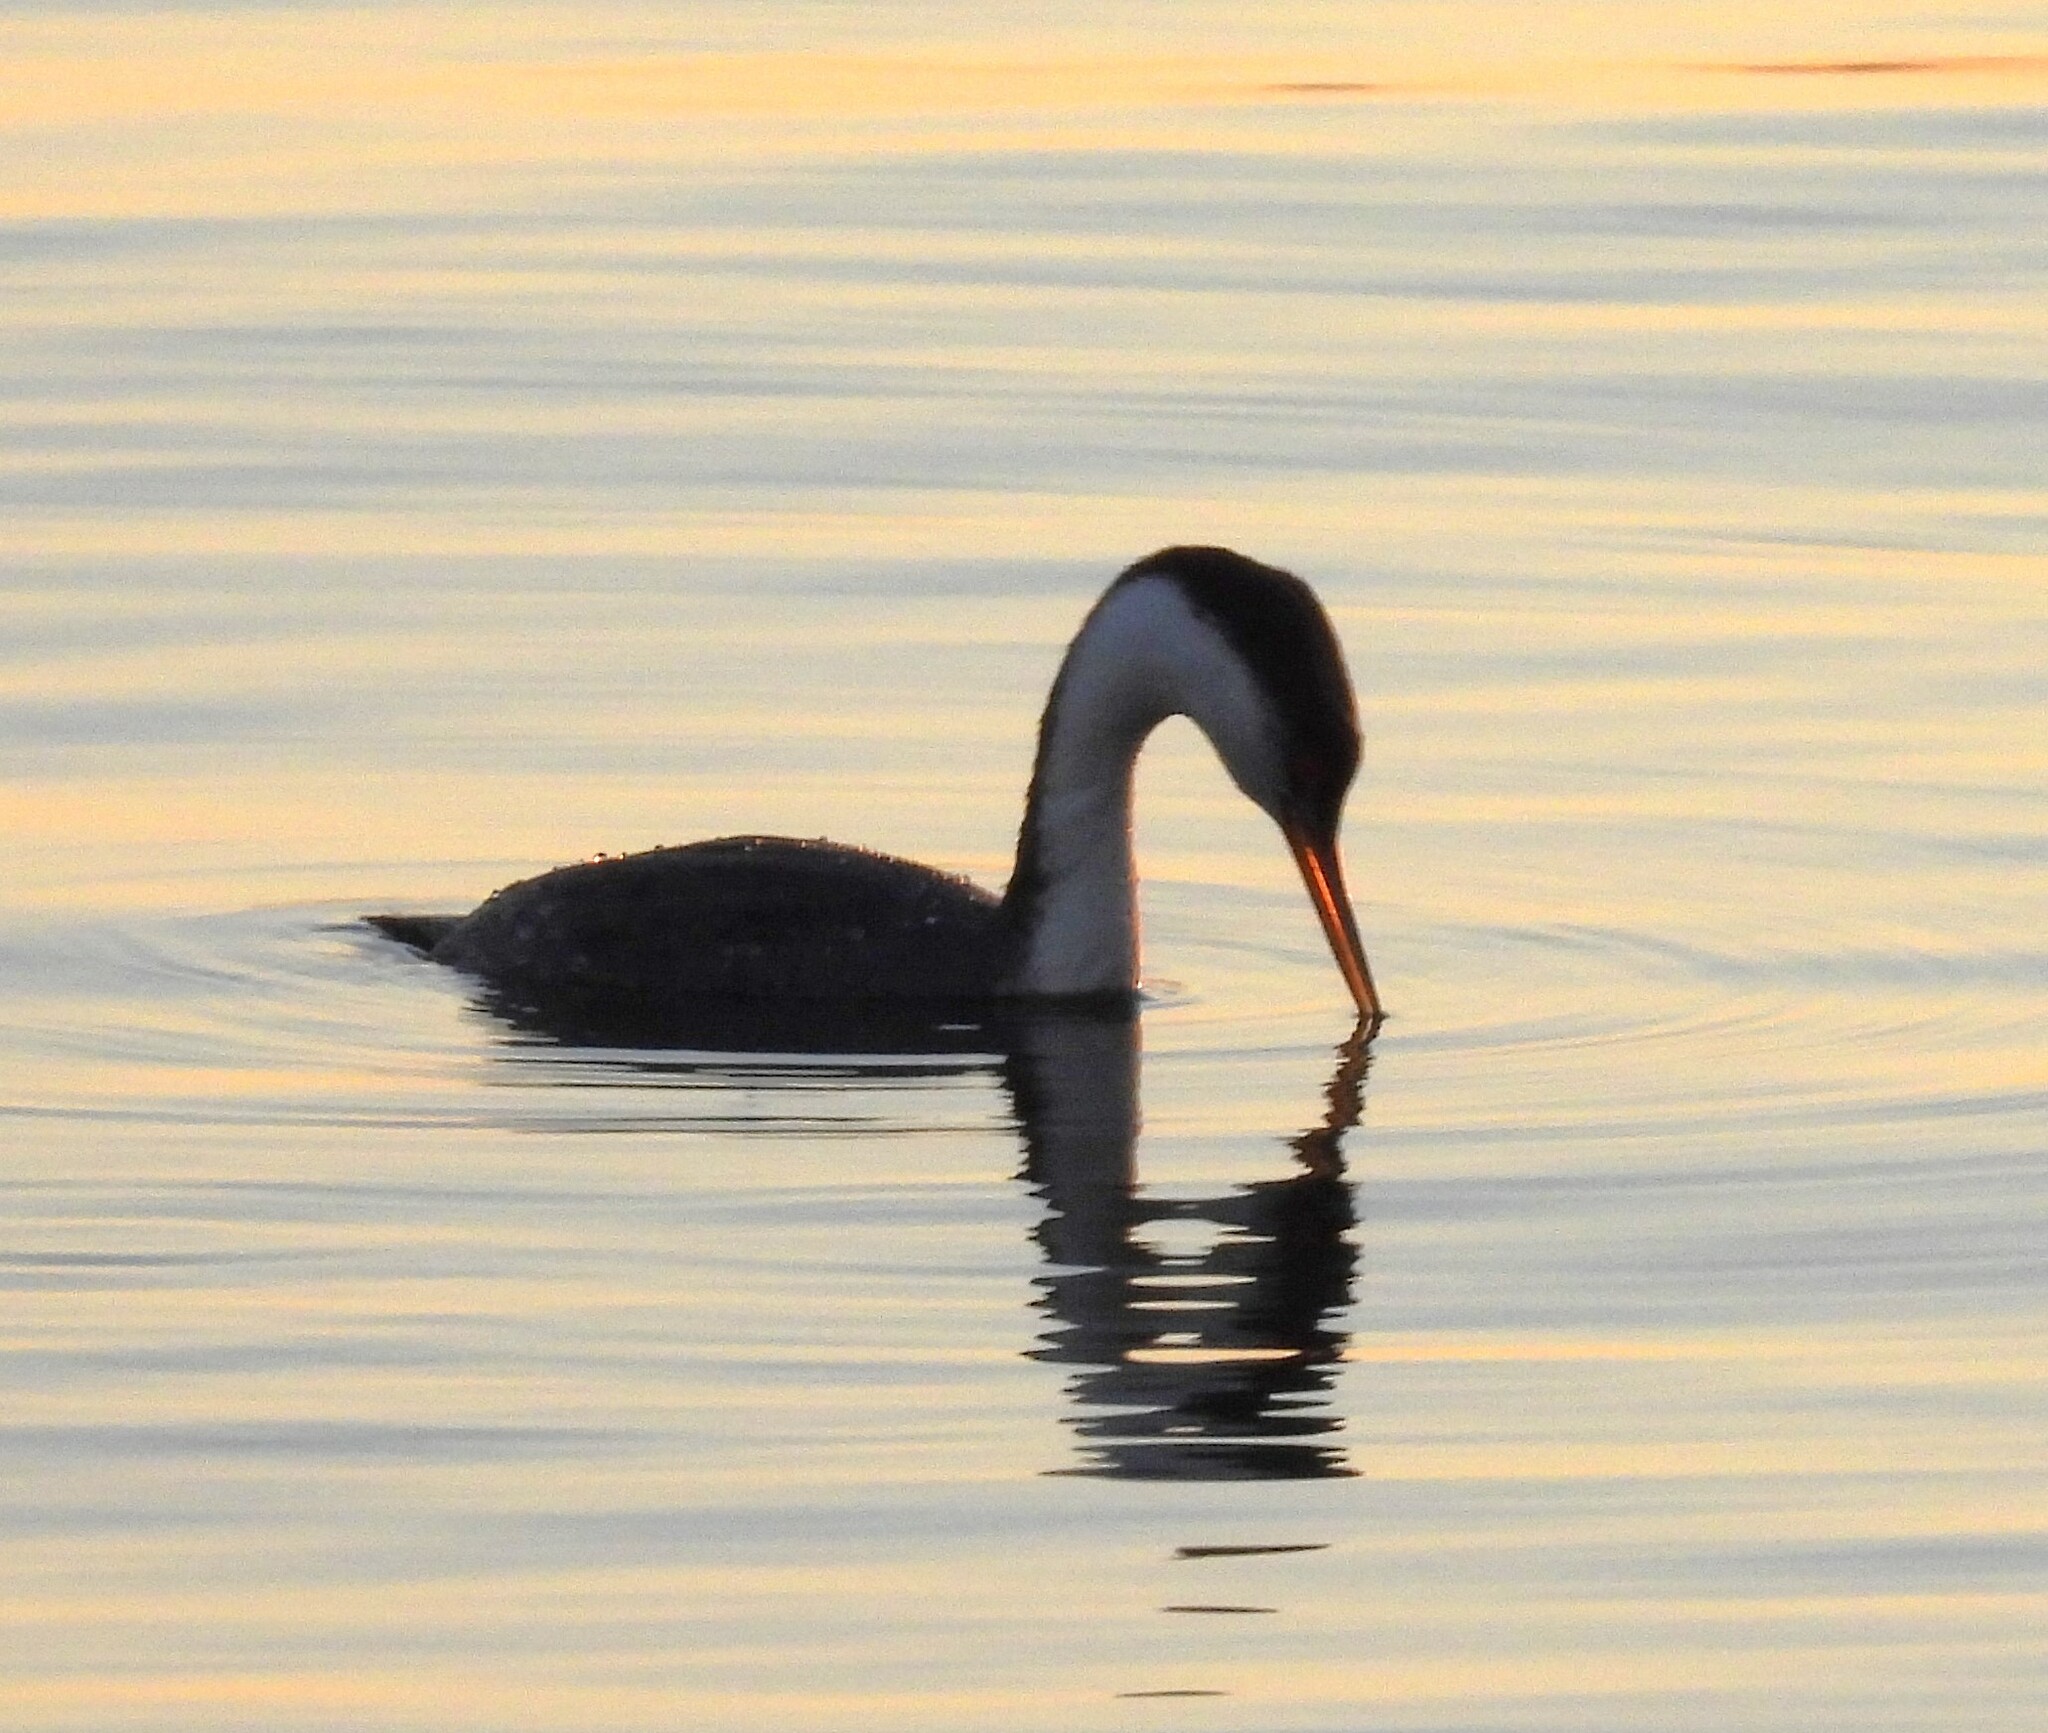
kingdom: Animalia
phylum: Chordata
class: Aves
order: Podicipediformes
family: Podicipedidae
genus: Aechmophorus
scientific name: Aechmophorus occidentalis
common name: Western grebe
